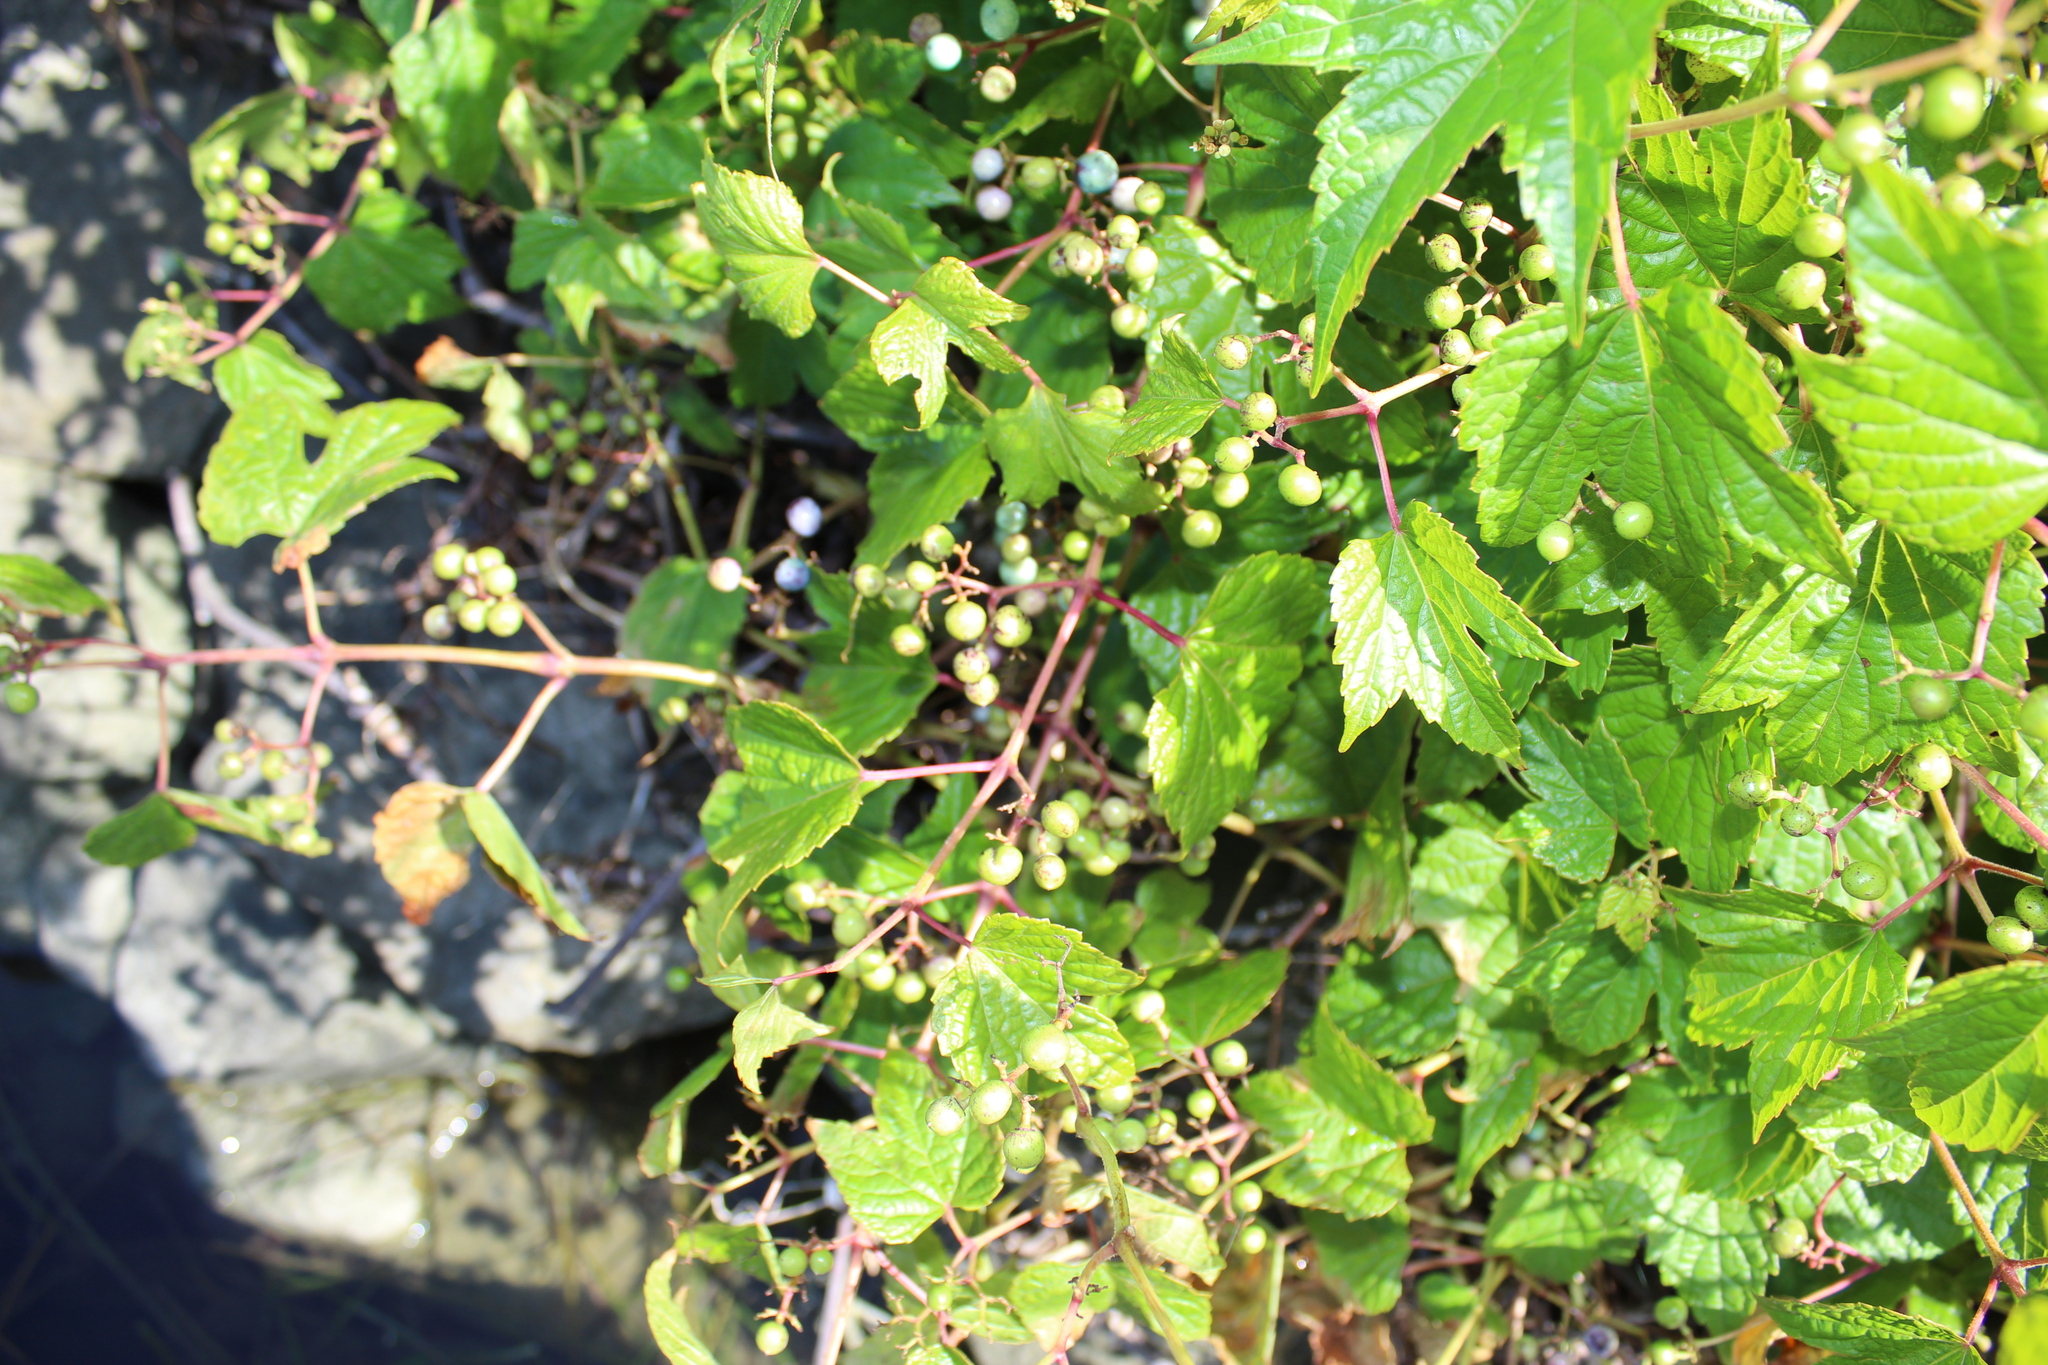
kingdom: Plantae
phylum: Tracheophyta
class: Magnoliopsida
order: Vitales
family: Vitaceae
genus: Ampelopsis
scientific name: Ampelopsis glandulosa
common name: Amur peppervine
